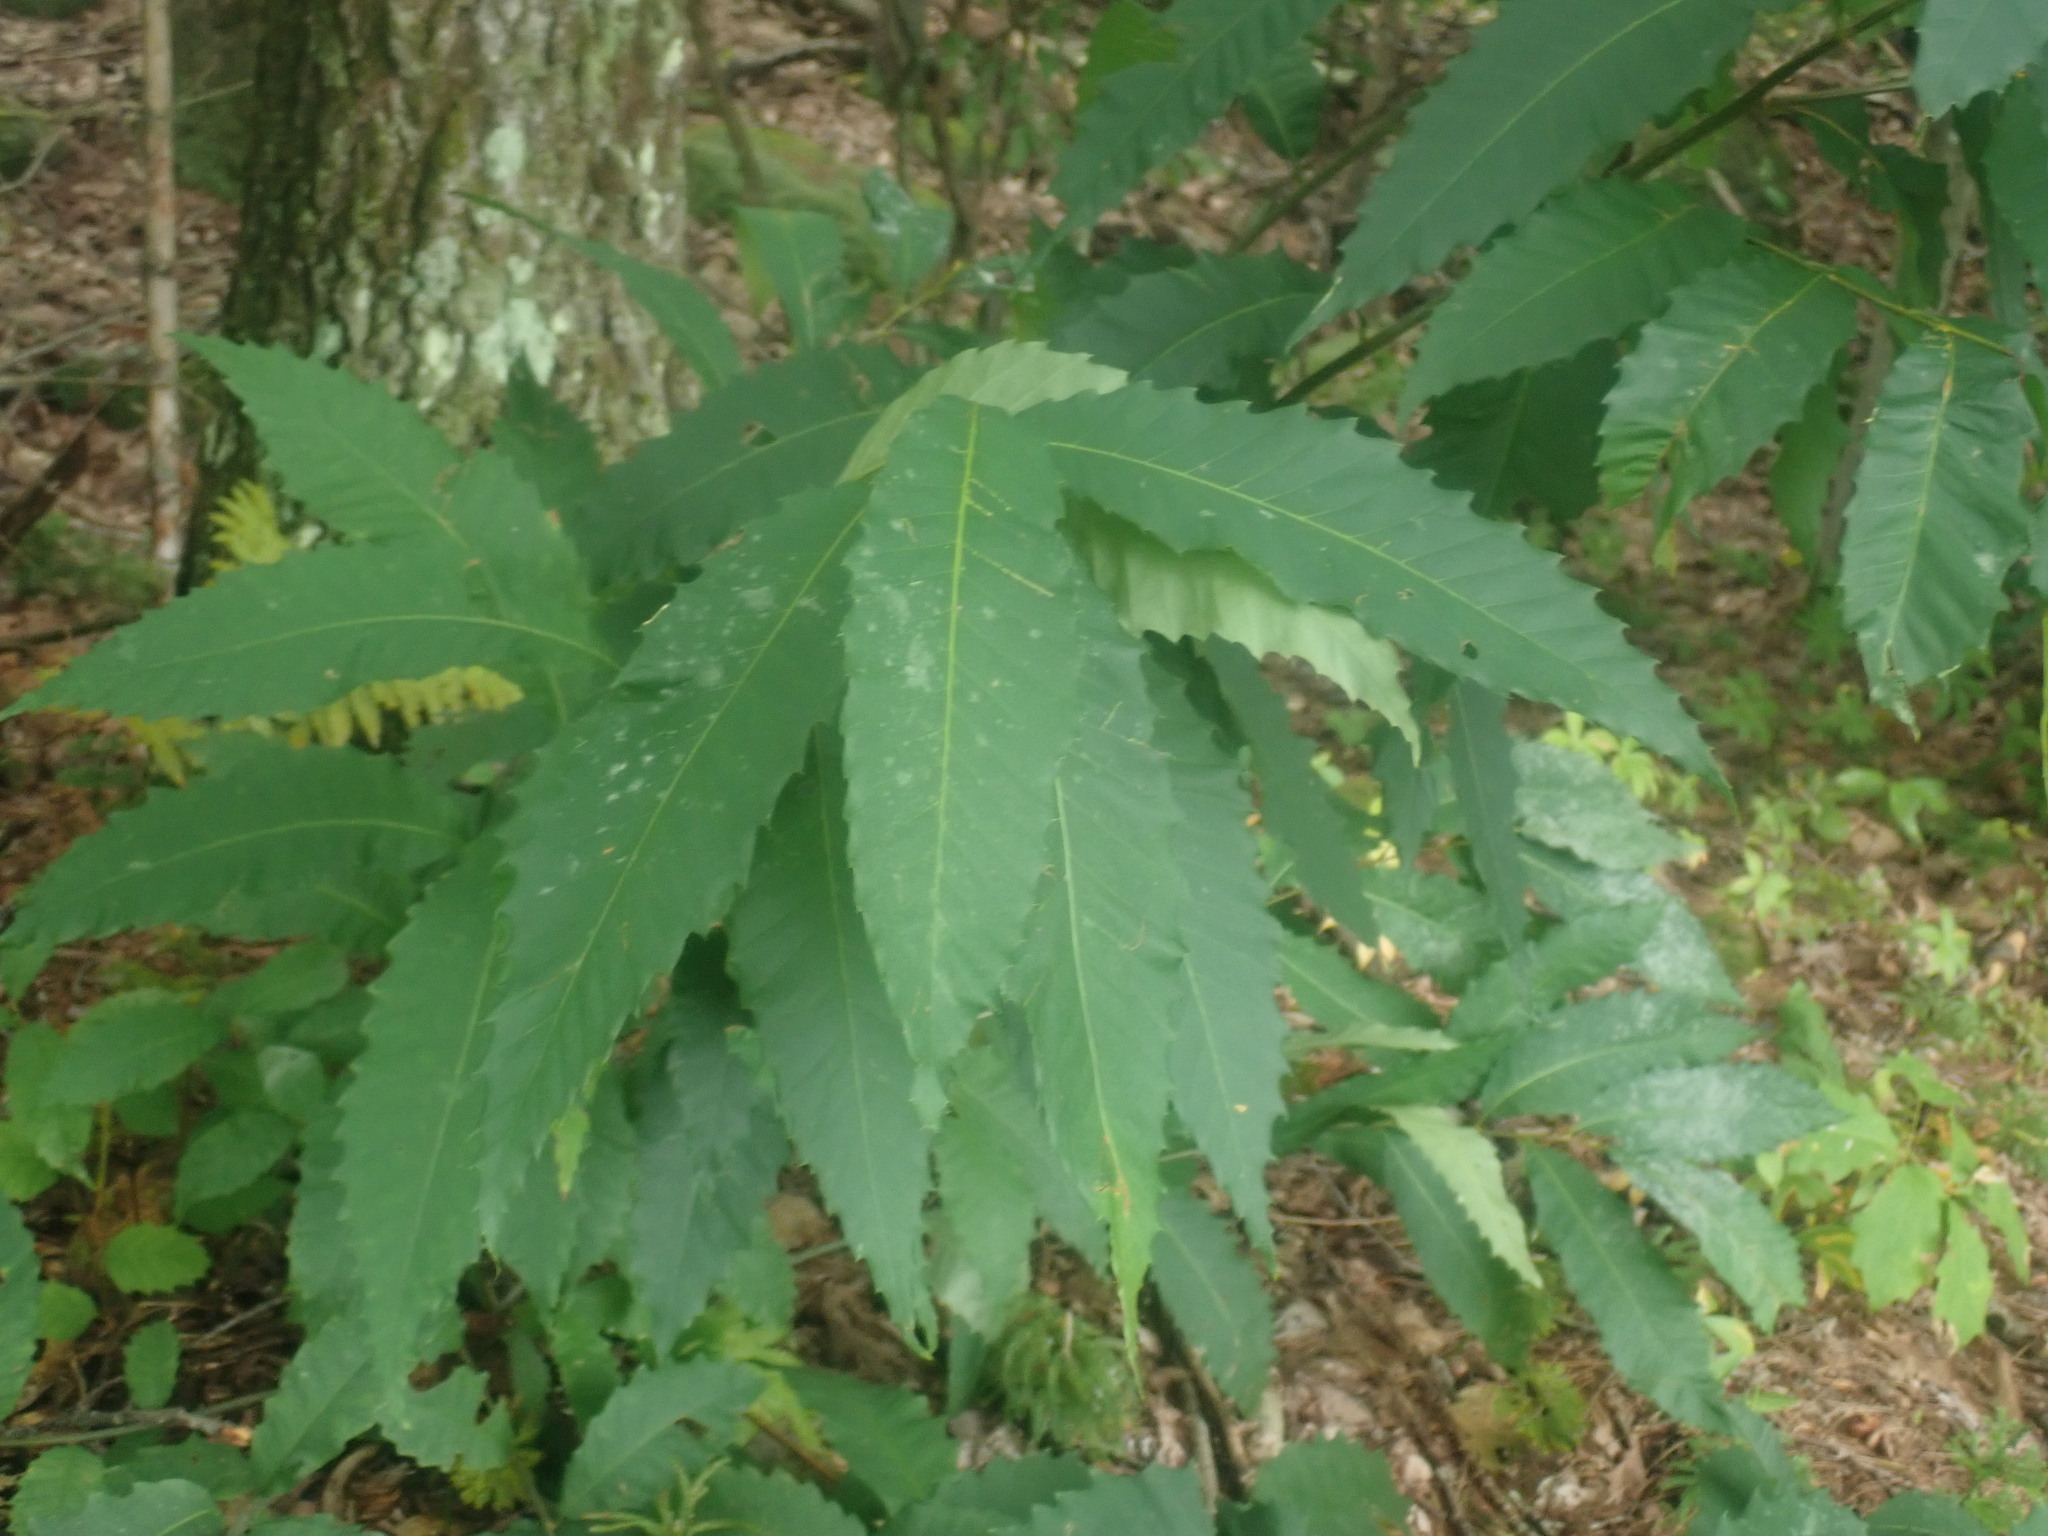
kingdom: Plantae
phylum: Tracheophyta
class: Magnoliopsida
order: Fagales
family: Fagaceae
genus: Castanea
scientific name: Castanea dentata
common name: American chestnut
